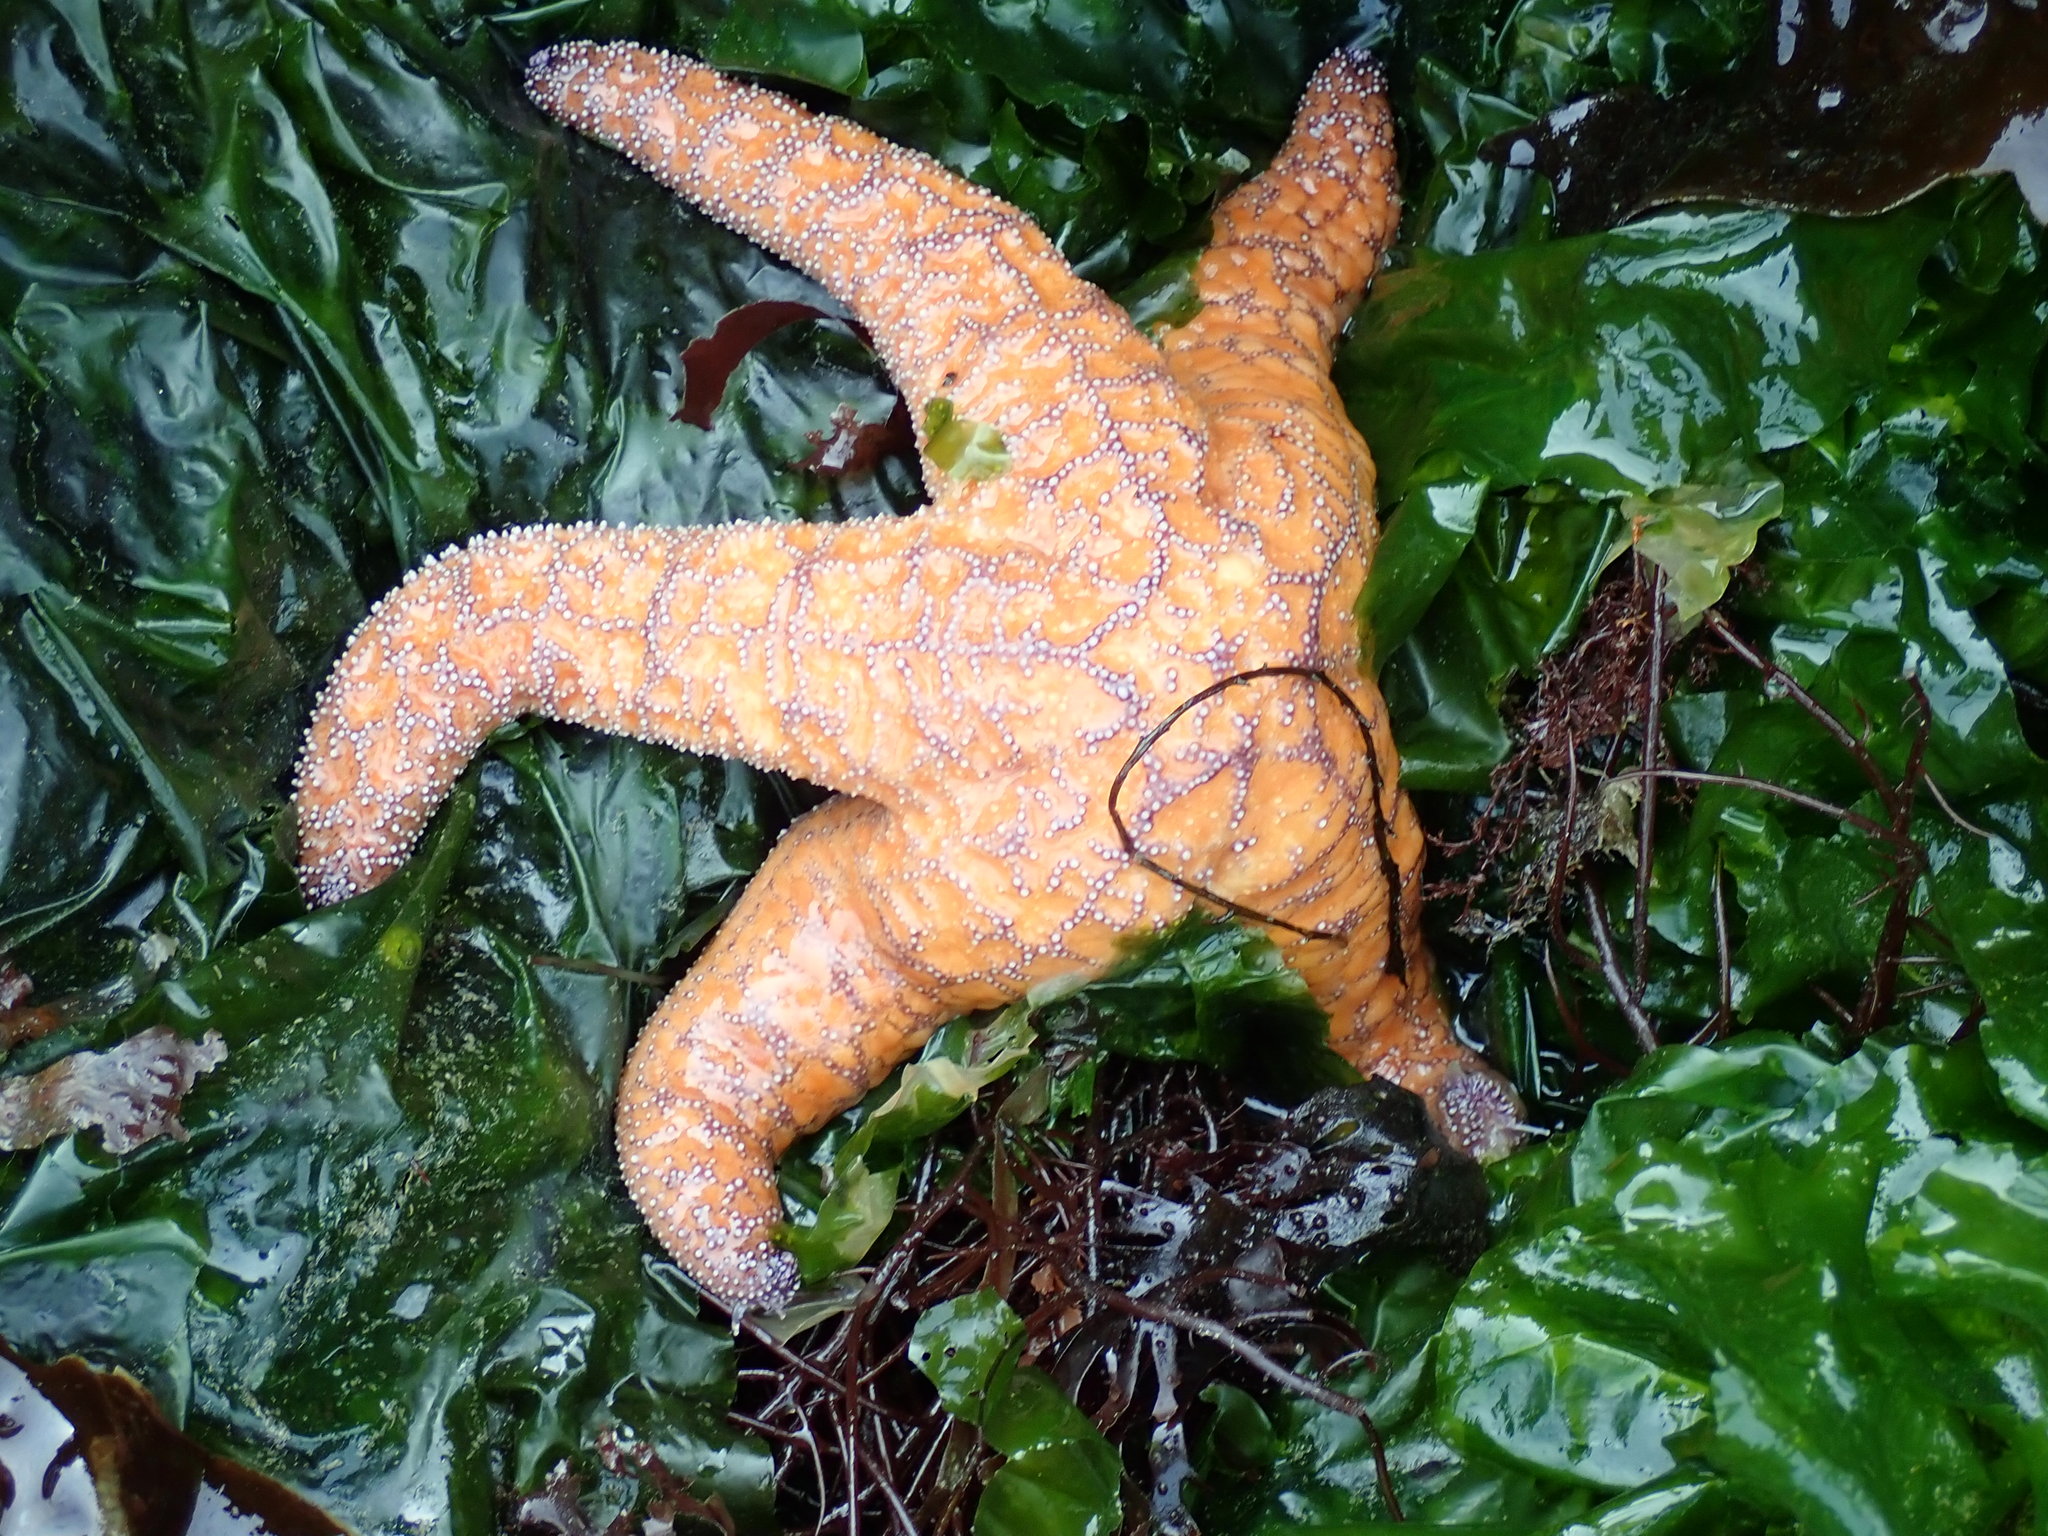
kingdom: Animalia
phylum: Echinodermata
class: Asteroidea
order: Forcipulatida
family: Asteriidae
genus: Pisaster
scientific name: Pisaster ochraceus
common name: Ochre stars
